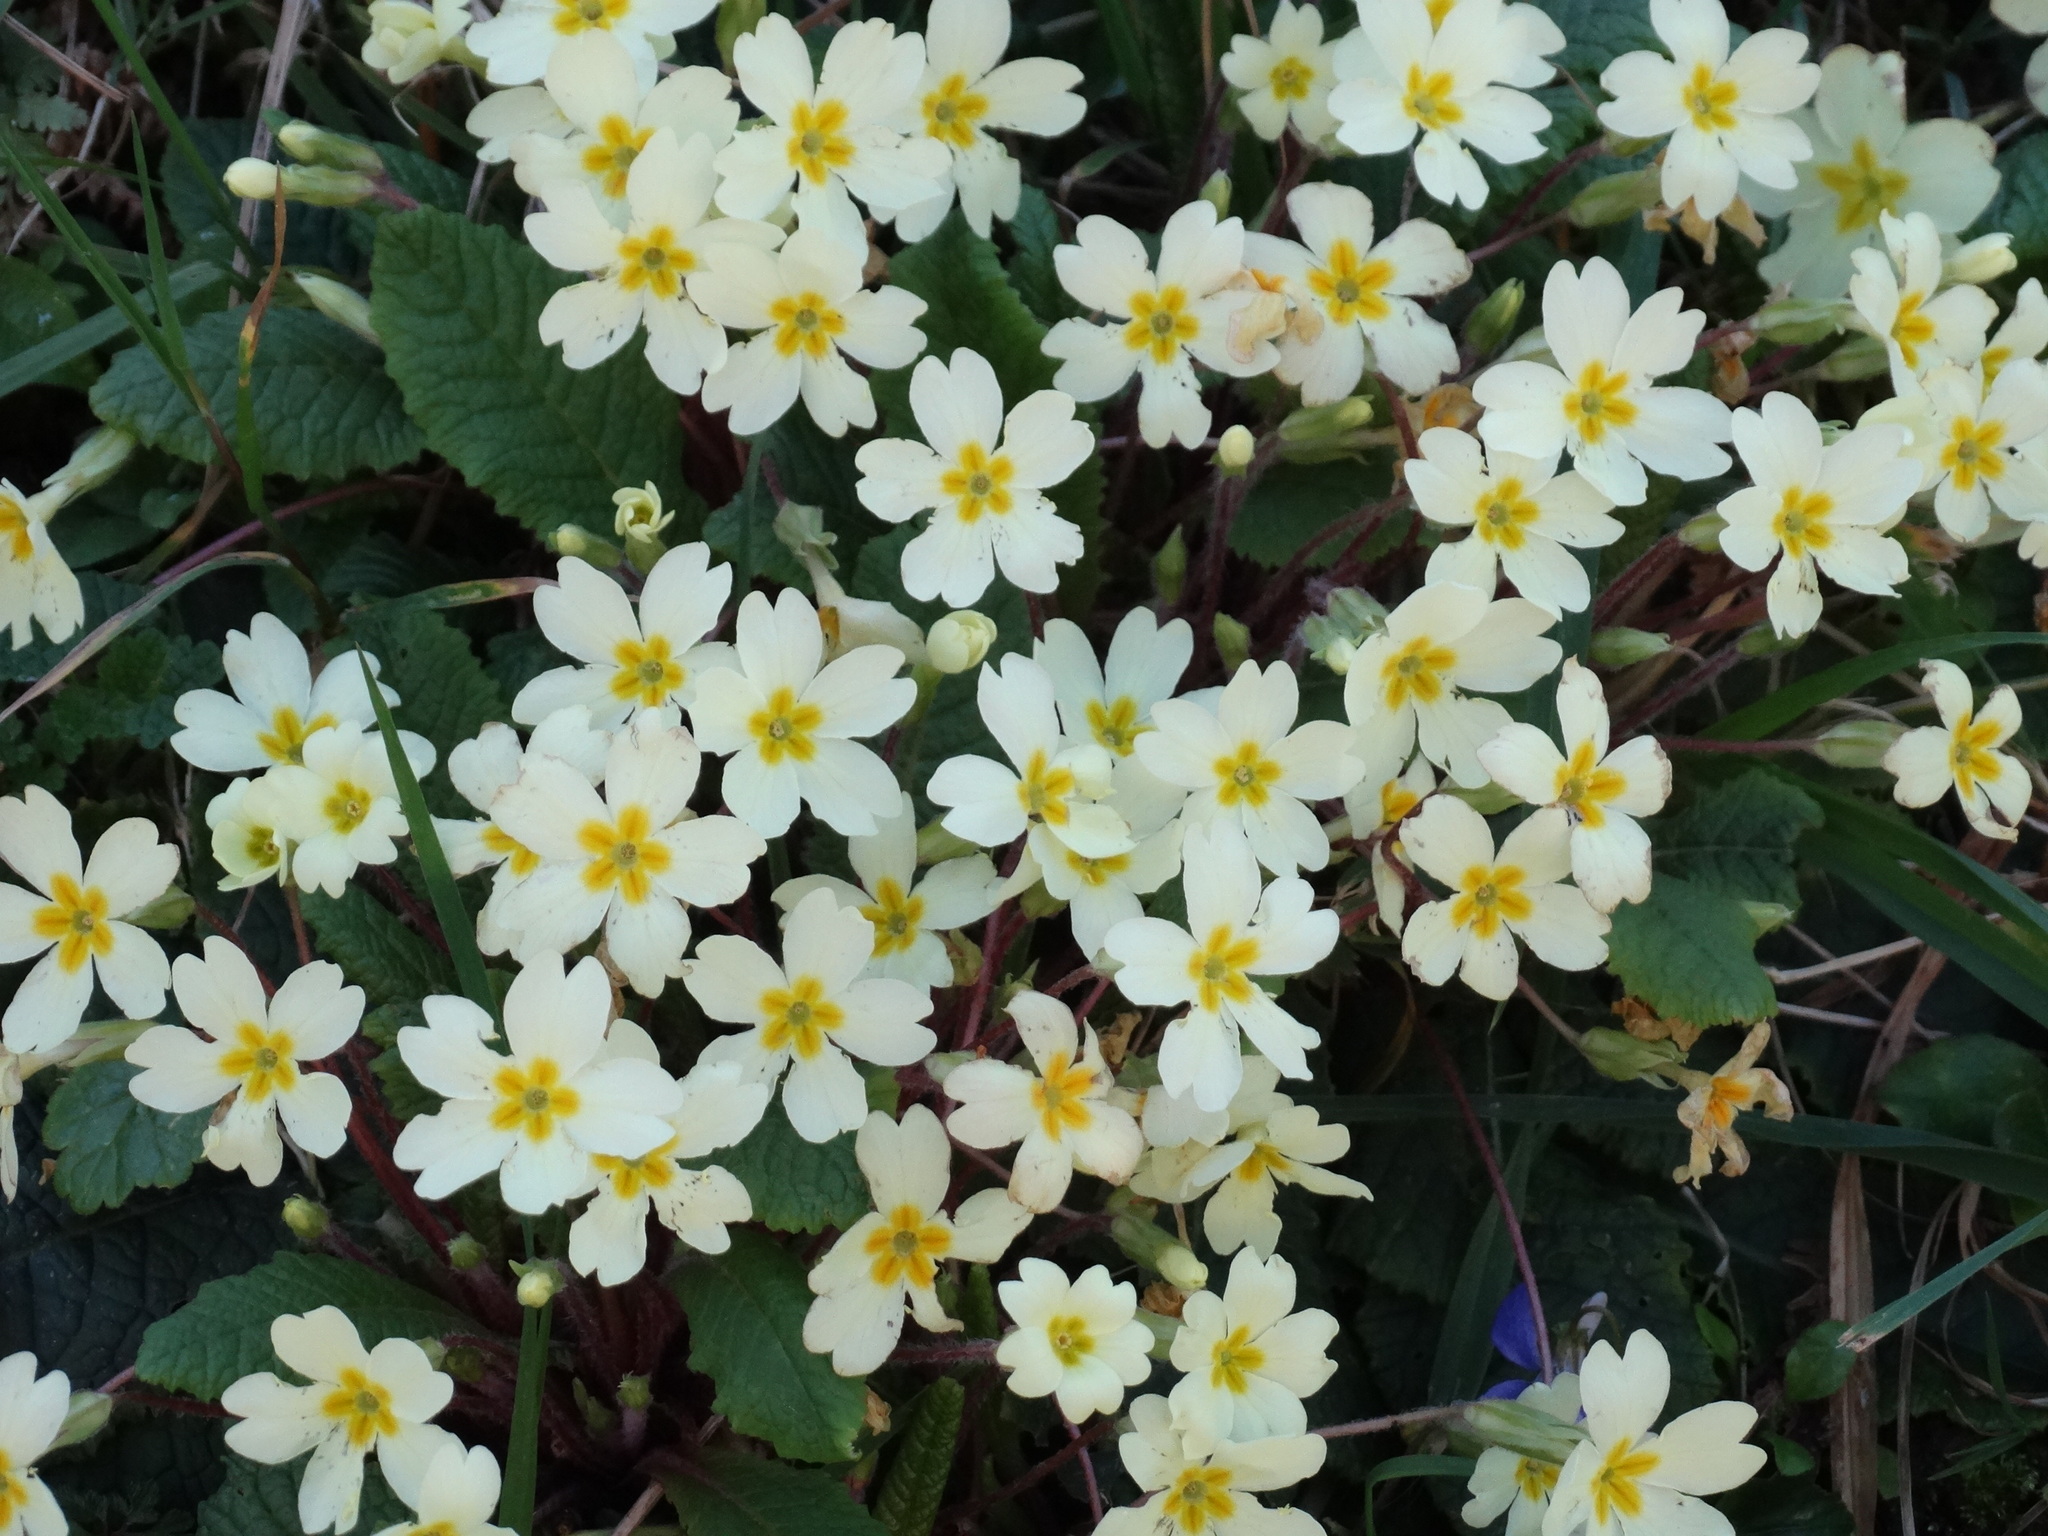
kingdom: Plantae
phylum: Tracheophyta
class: Magnoliopsida
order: Ericales
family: Primulaceae
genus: Primula
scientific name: Primula vulgaris
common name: Primrose
